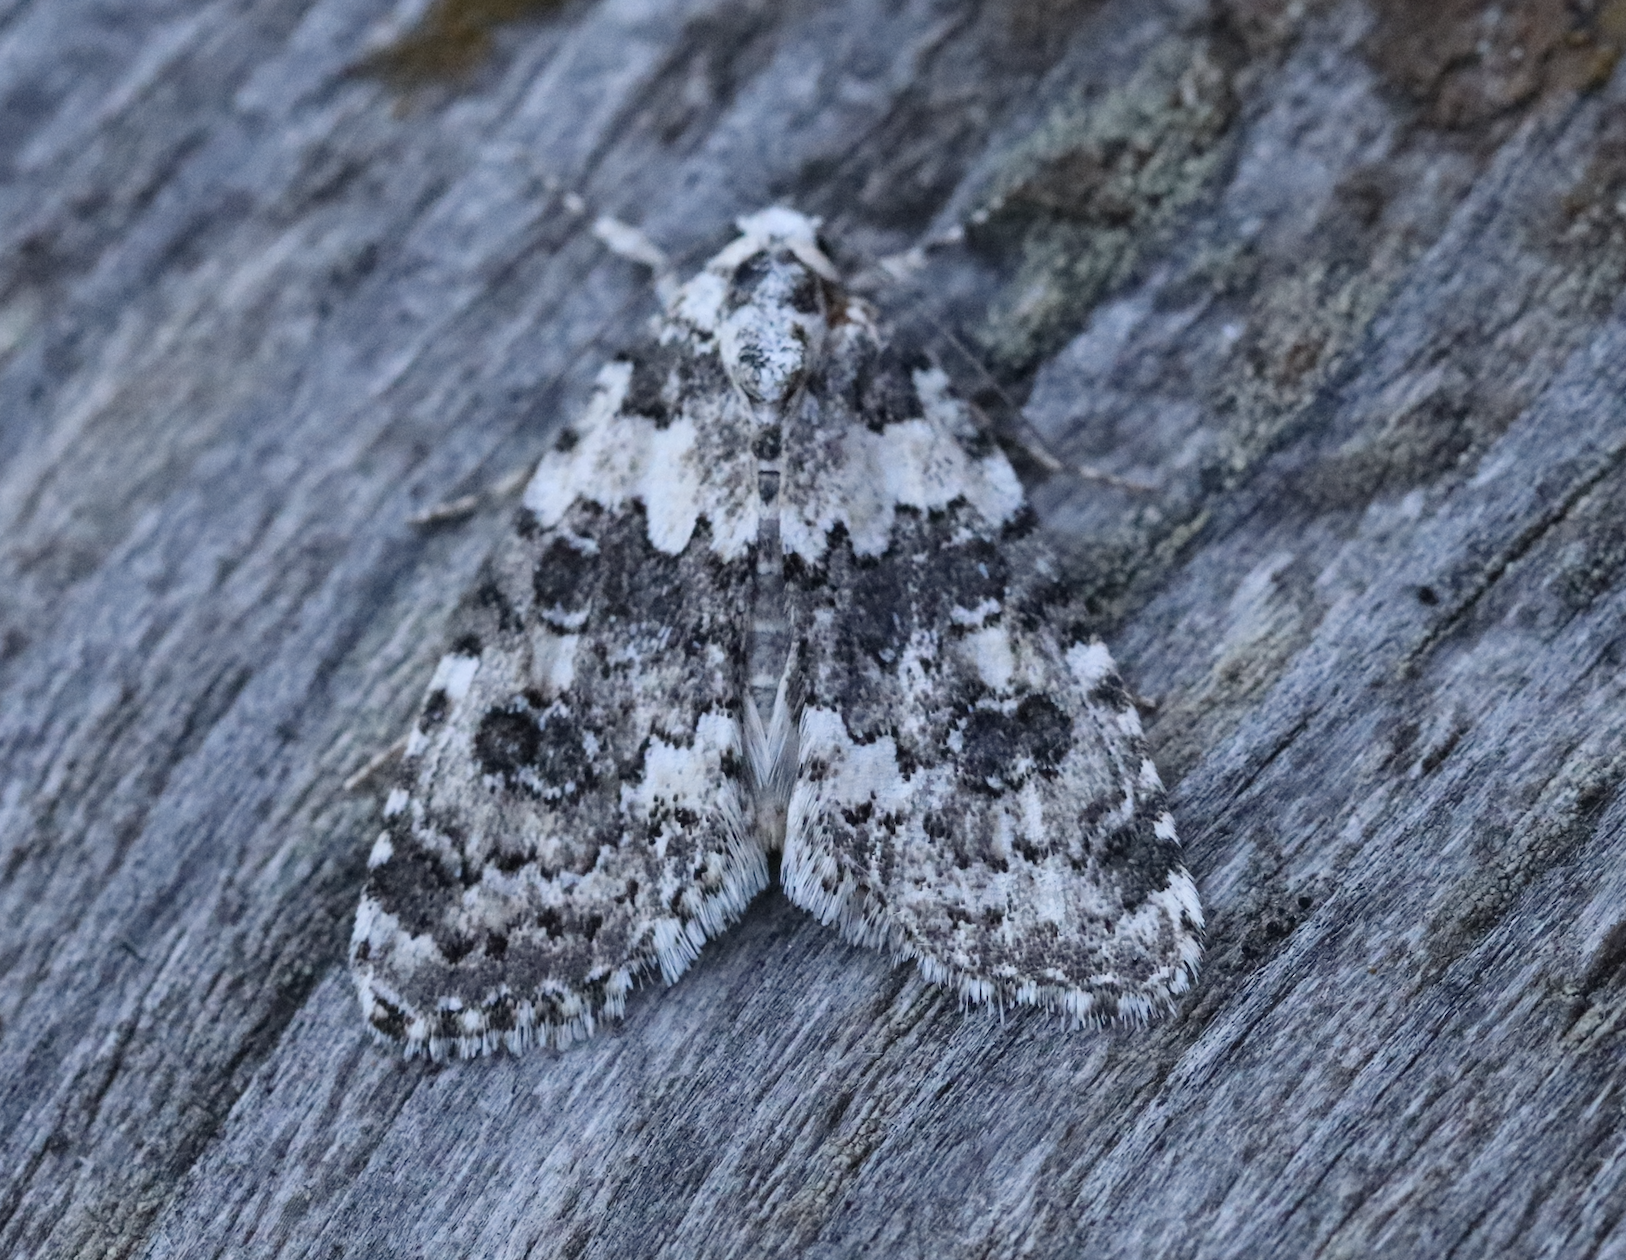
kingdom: Animalia
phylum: Arthropoda
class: Insecta
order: Lepidoptera
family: Noctuidae
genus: Bryophila
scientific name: Bryophila domestica
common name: Marbled beauty
